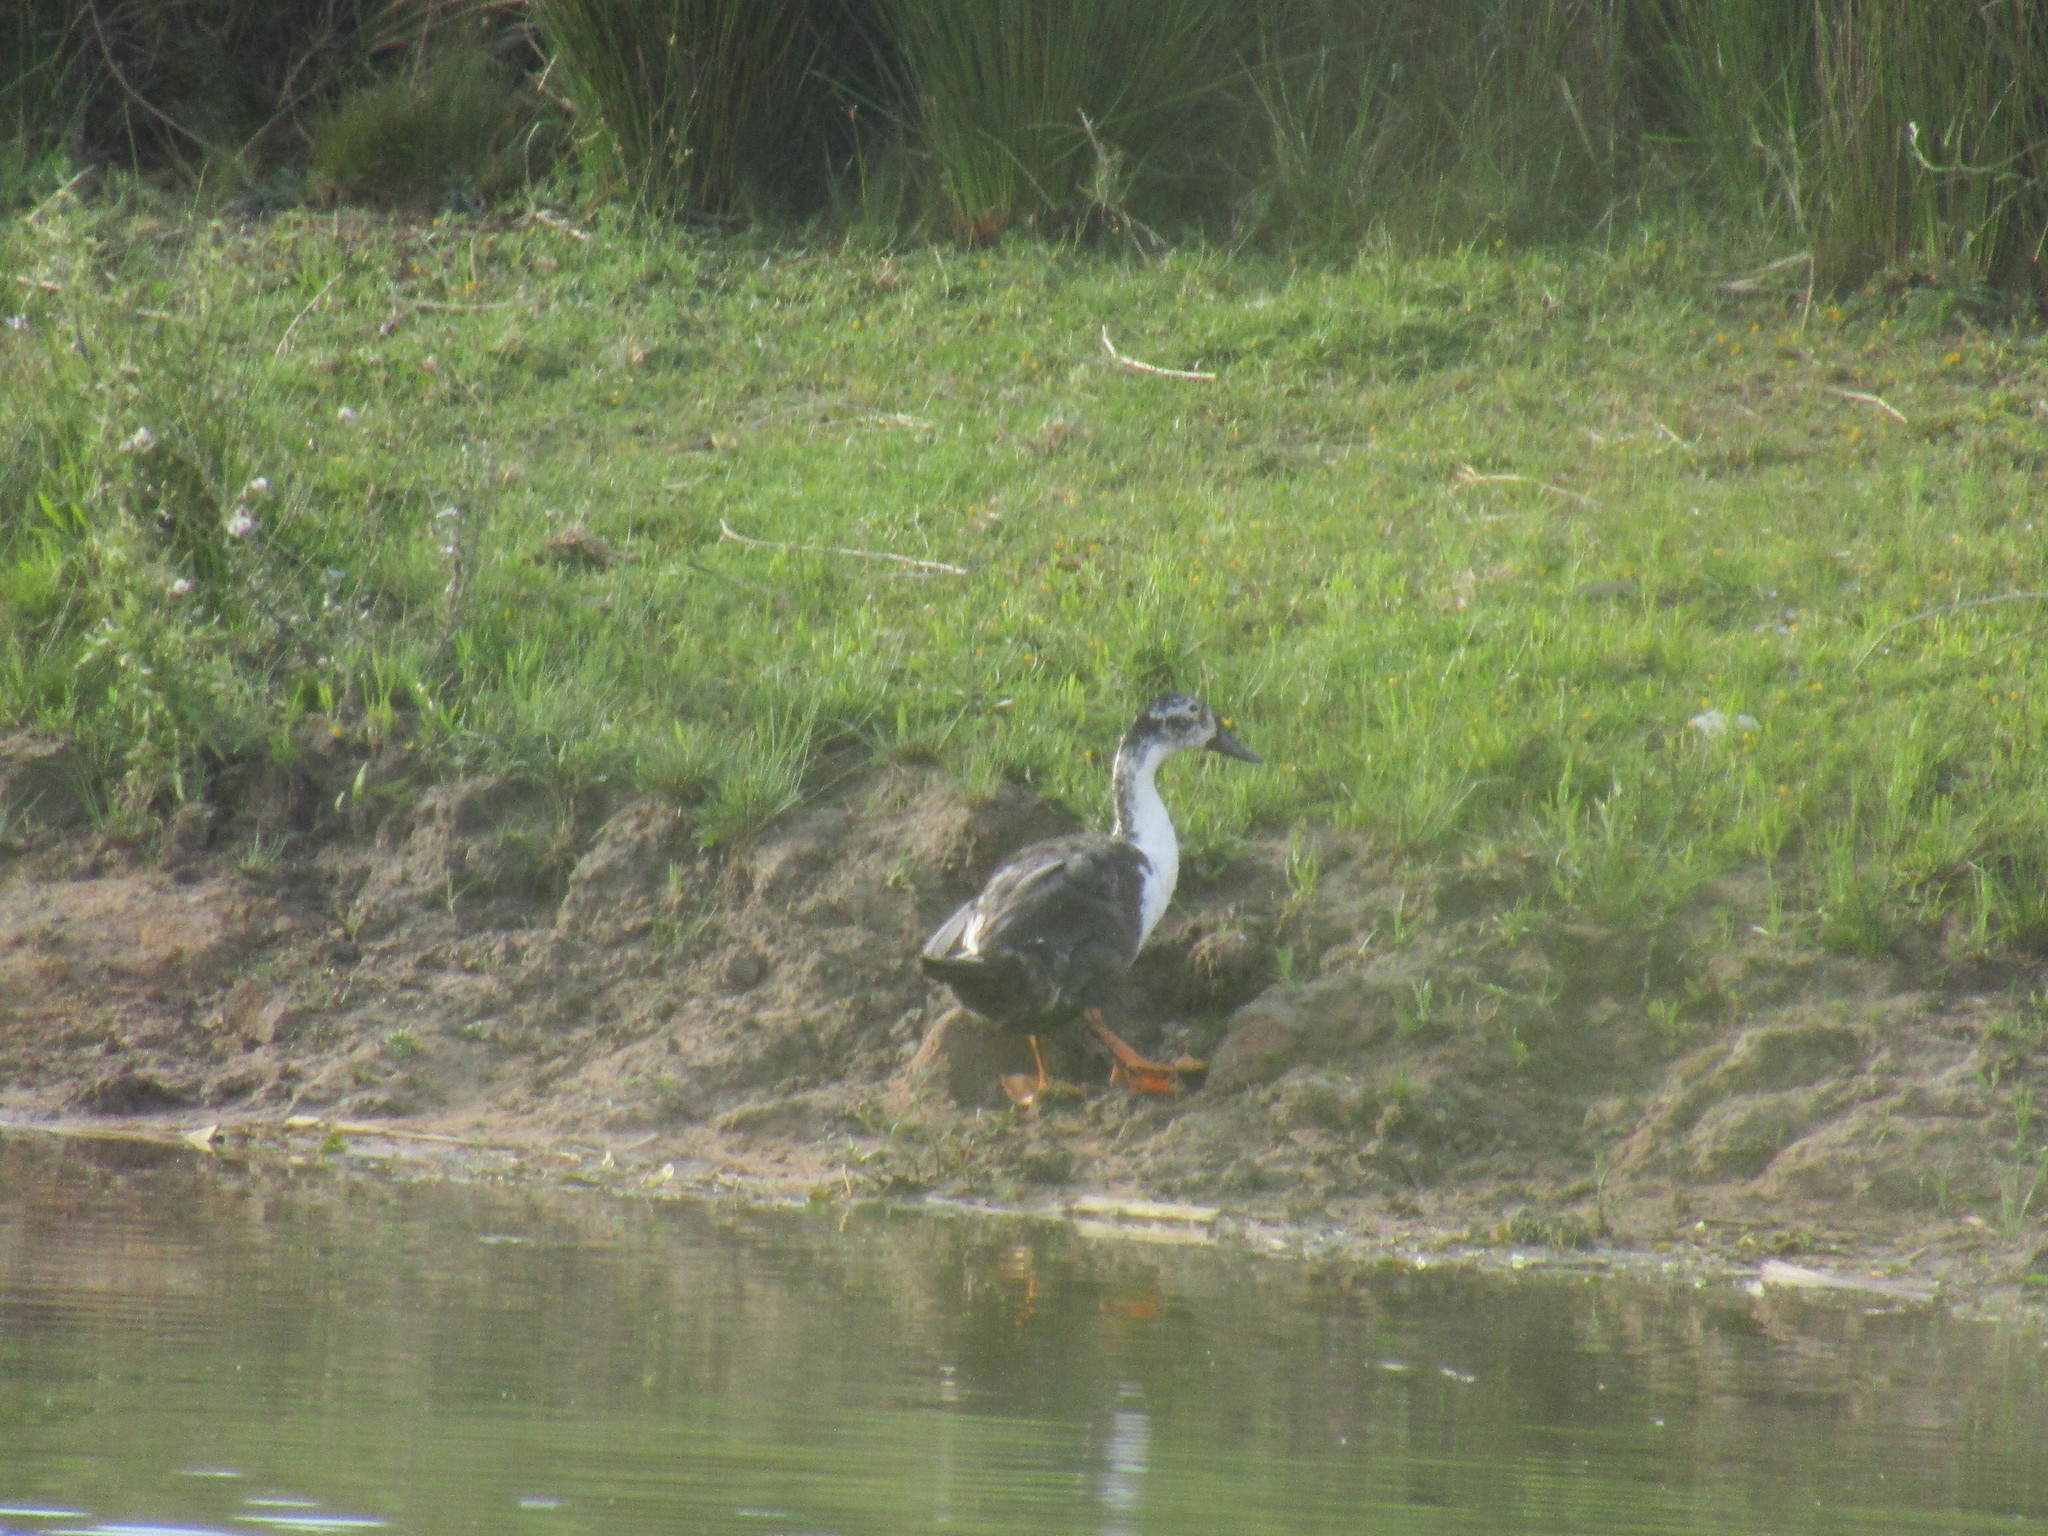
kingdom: Animalia
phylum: Chordata
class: Aves
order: Anseriformes
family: Anatidae
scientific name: Anatidae
